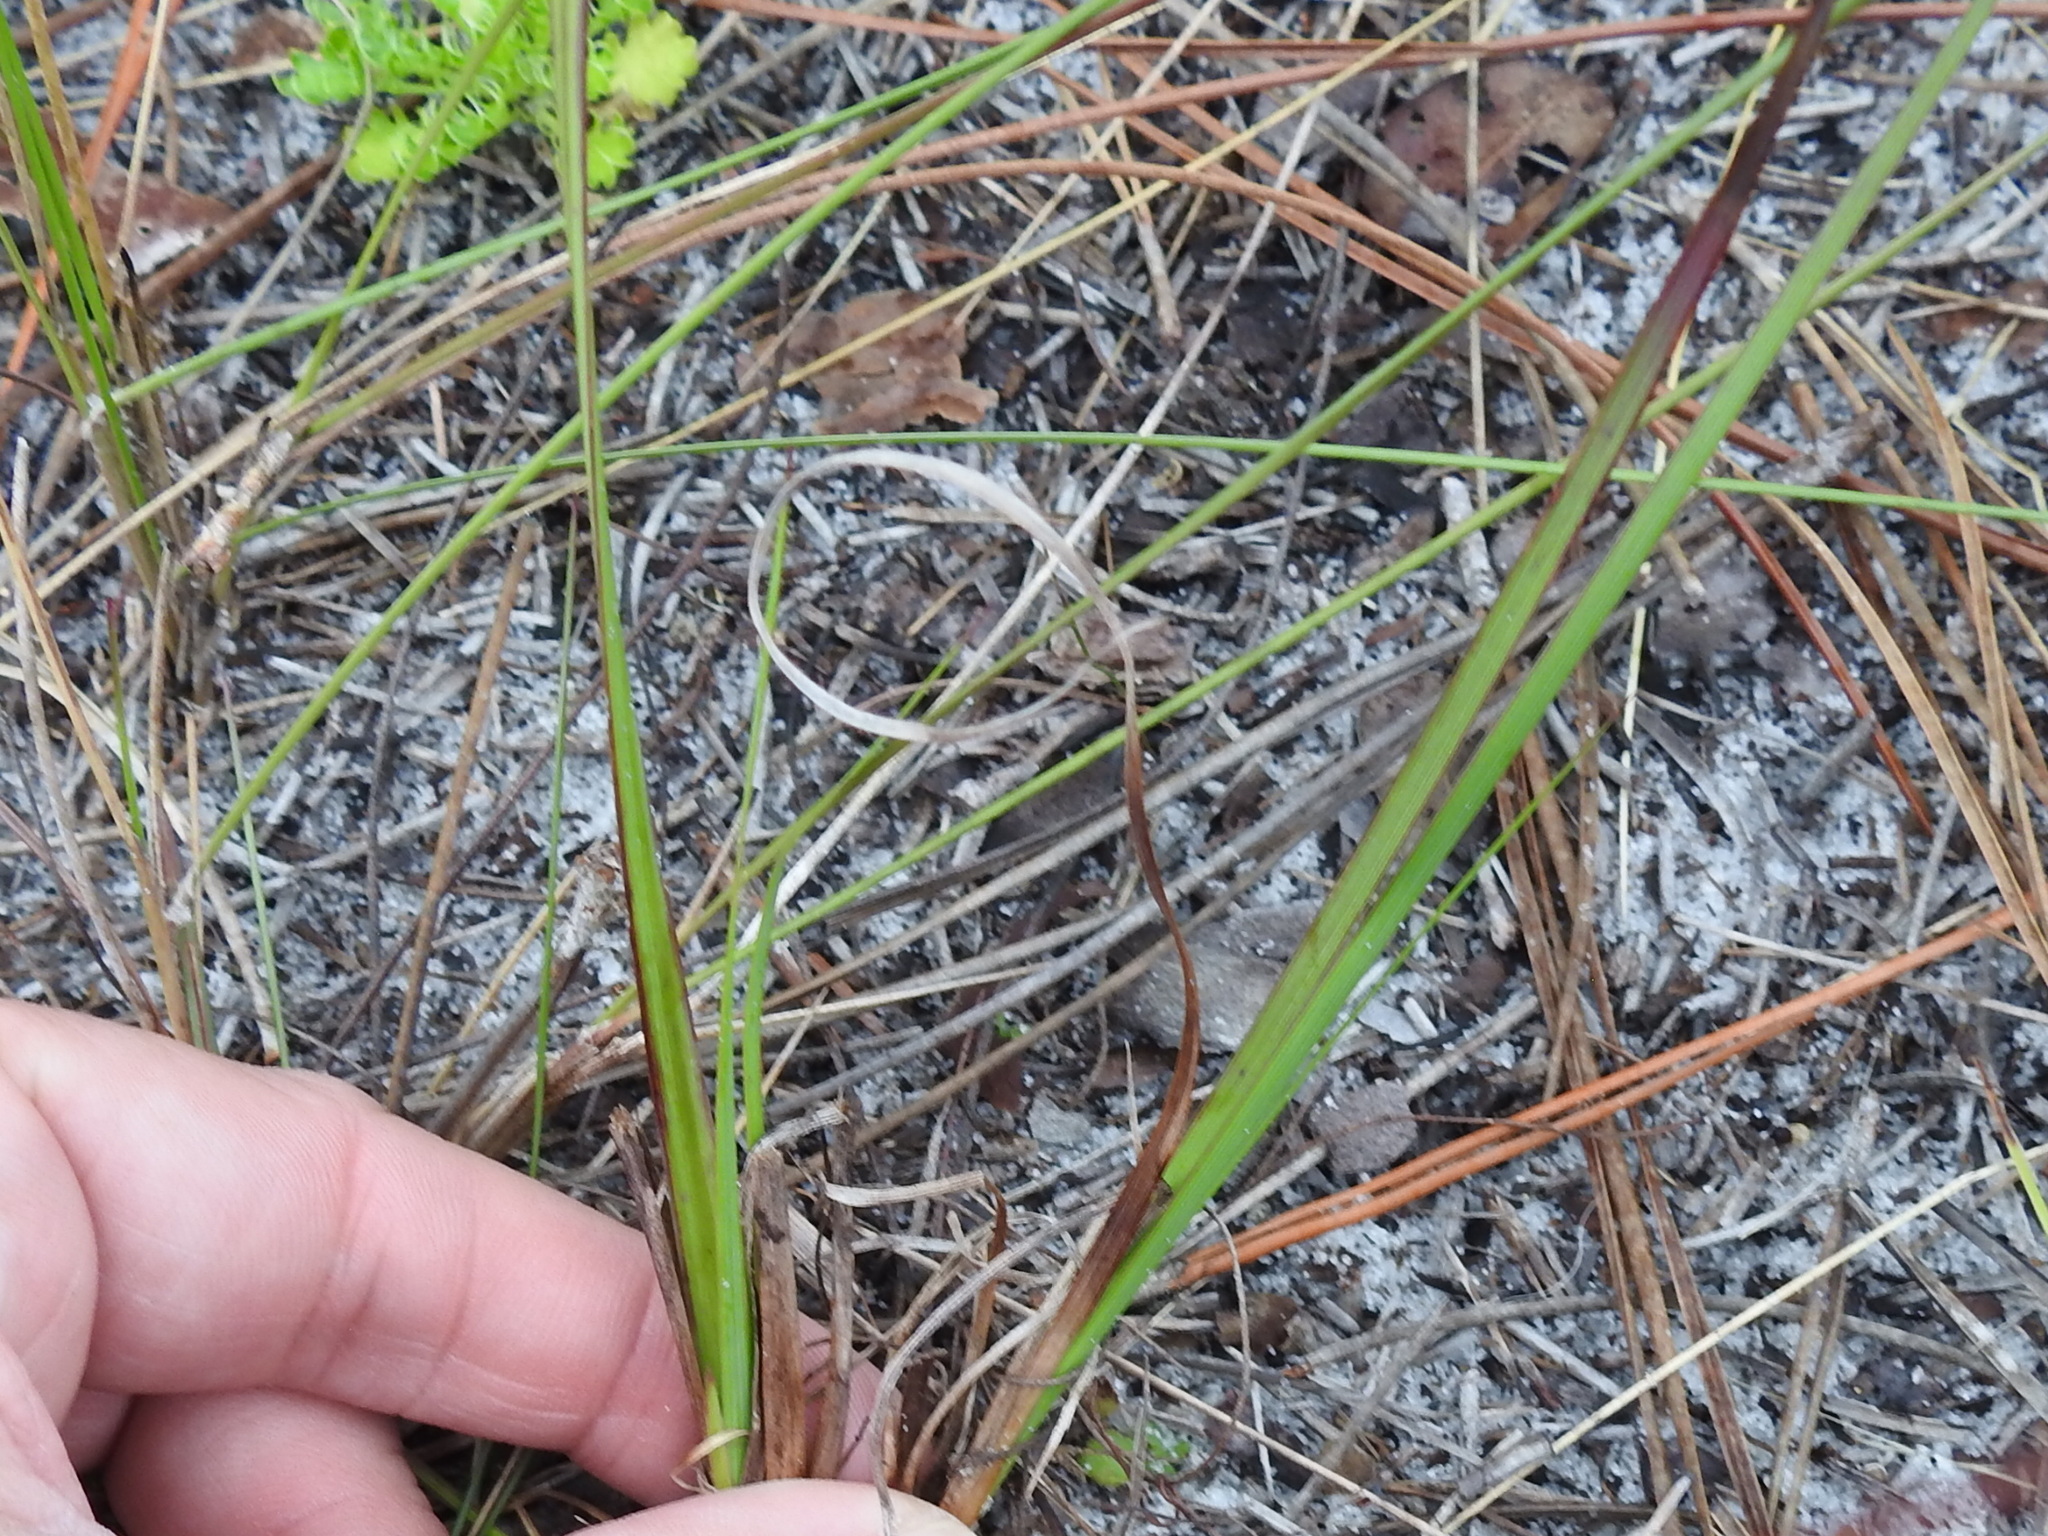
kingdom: Plantae
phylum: Tracheophyta
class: Liliopsida
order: Asparagales
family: Iridaceae
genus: Sisyrinchium
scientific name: Sisyrinchium xerophyllum
